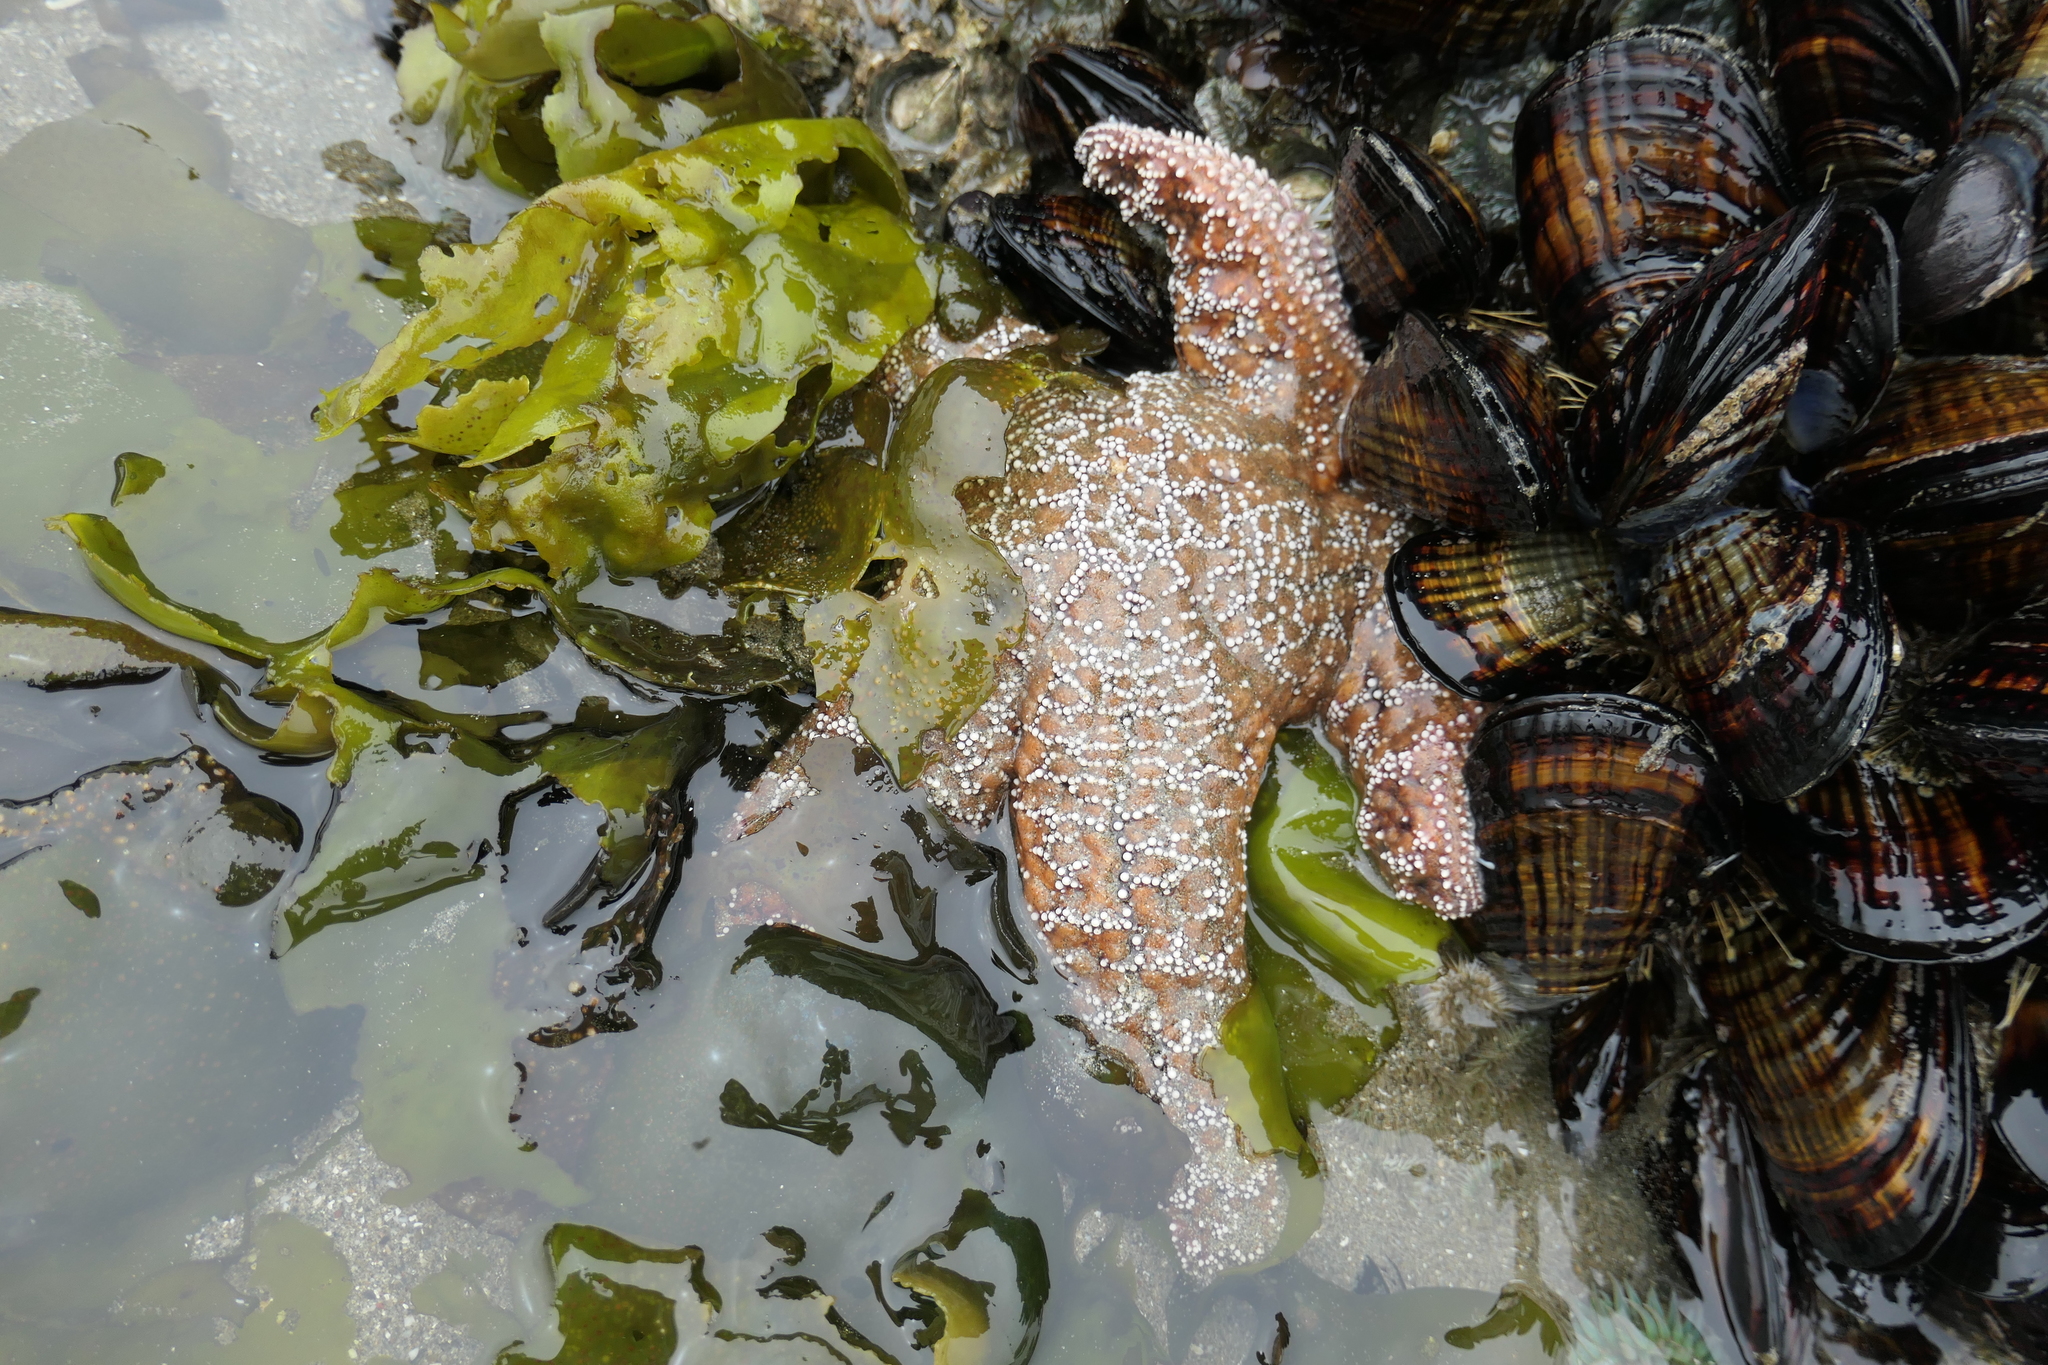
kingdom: Animalia
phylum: Echinodermata
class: Asteroidea
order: Forcipulatida
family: Asteriidae
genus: Pisaster
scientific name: Pisaster ochraceus
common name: Ochre stars
